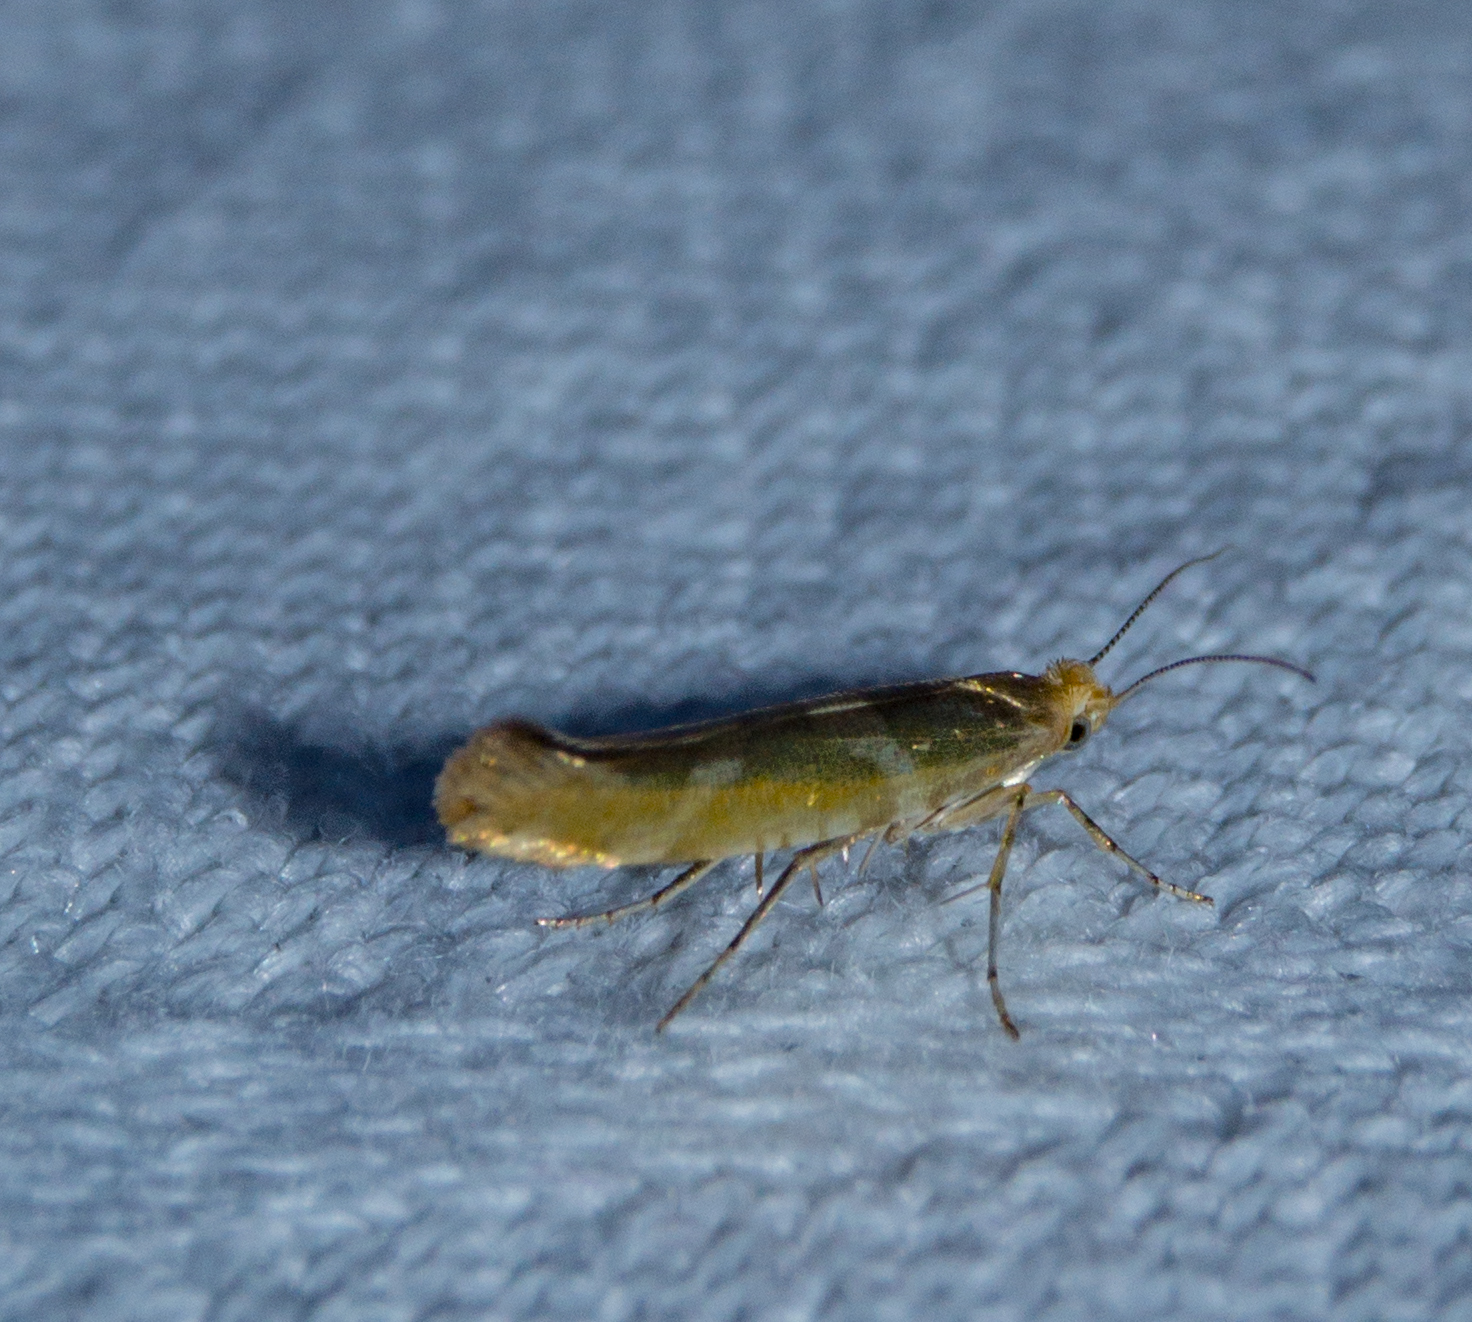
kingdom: Animalia
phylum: Arthropoda
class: Insecta
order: Lepidoptera
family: Argyresthiidae
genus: Argyresthia
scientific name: Argyresthia goedartella
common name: Golden argent
